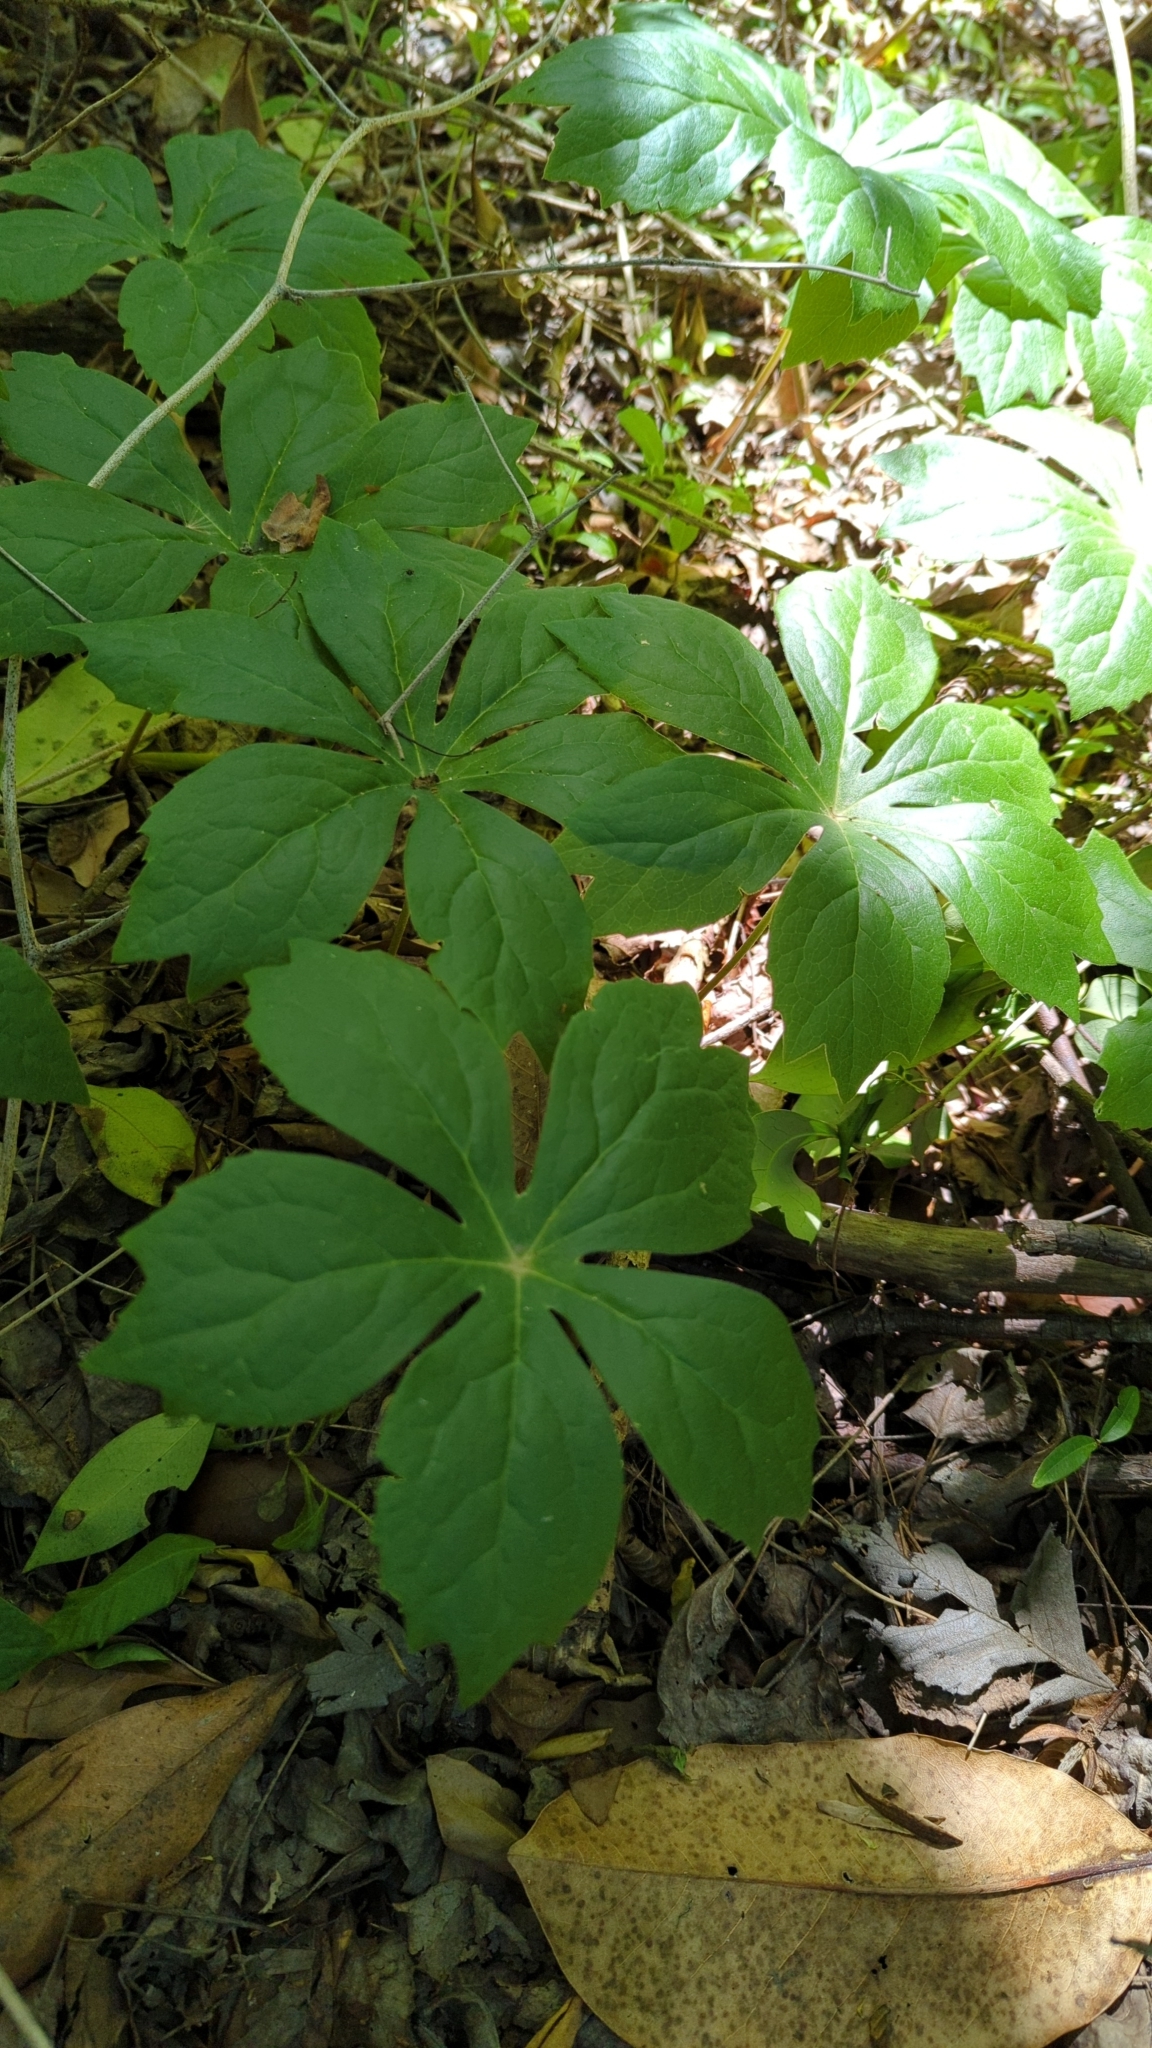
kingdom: Plantae
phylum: Tracheophyta
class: Magnoliopsida
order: Ranunculales
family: Berberidaceae
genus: Podophyllum
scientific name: Podophyllum peltatum
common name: Wild mandrake
